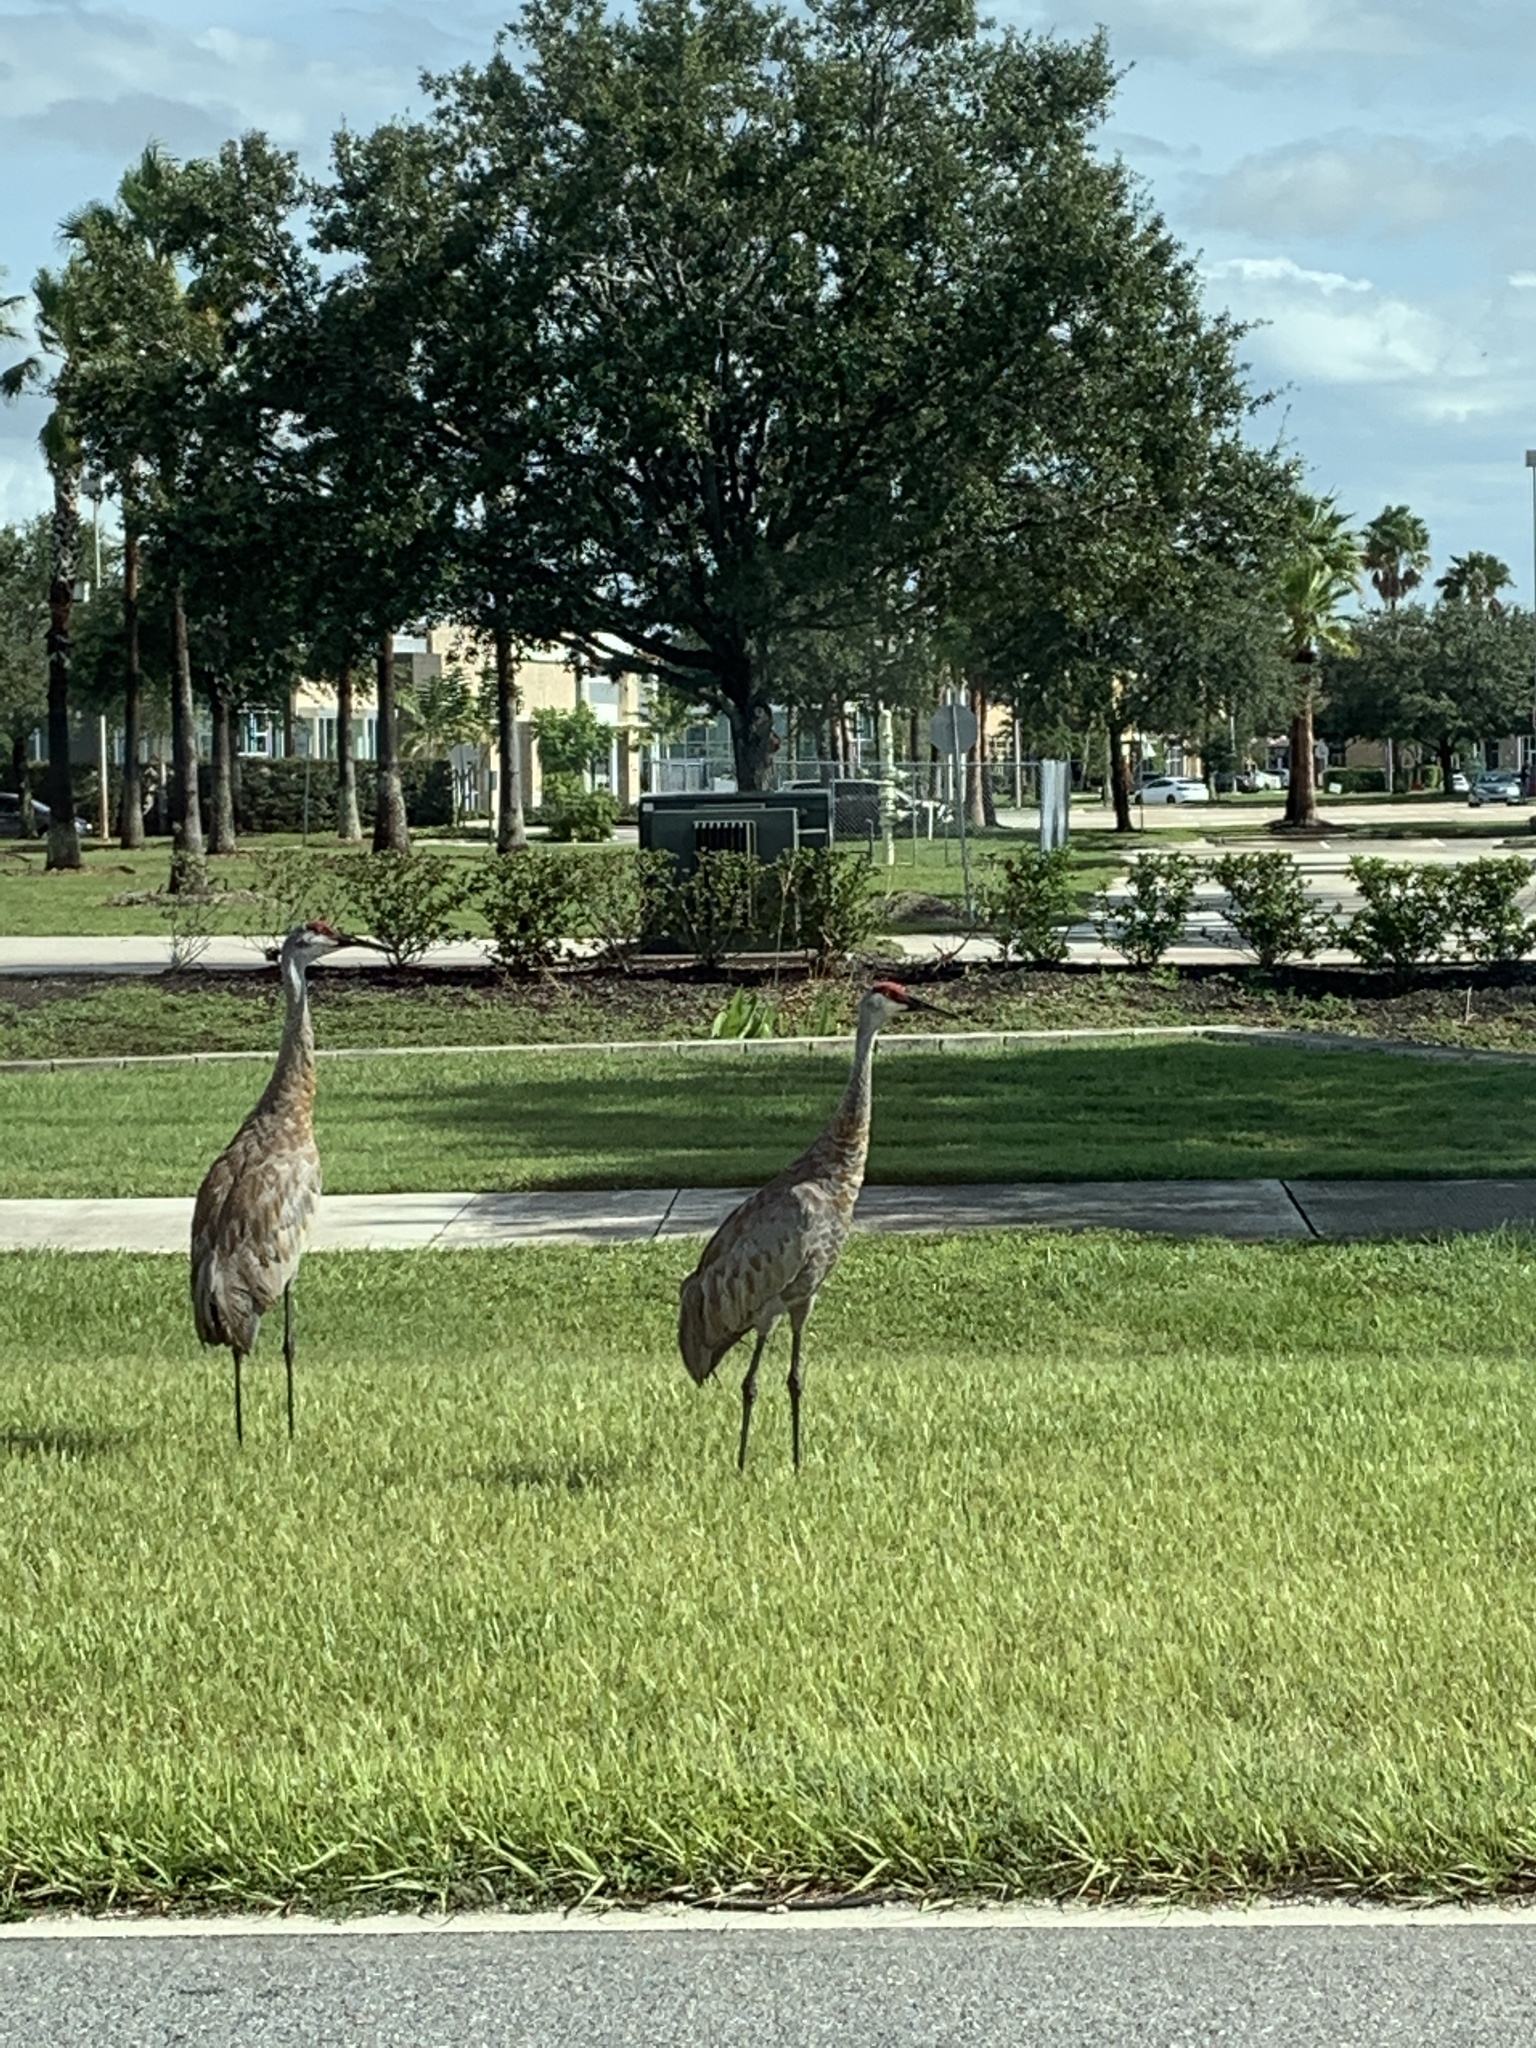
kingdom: Animalia
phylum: Chordata
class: Aves
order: Gruiformes
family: Gruidae
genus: Grus
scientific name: Grus canadensis
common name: Sandhill crane
